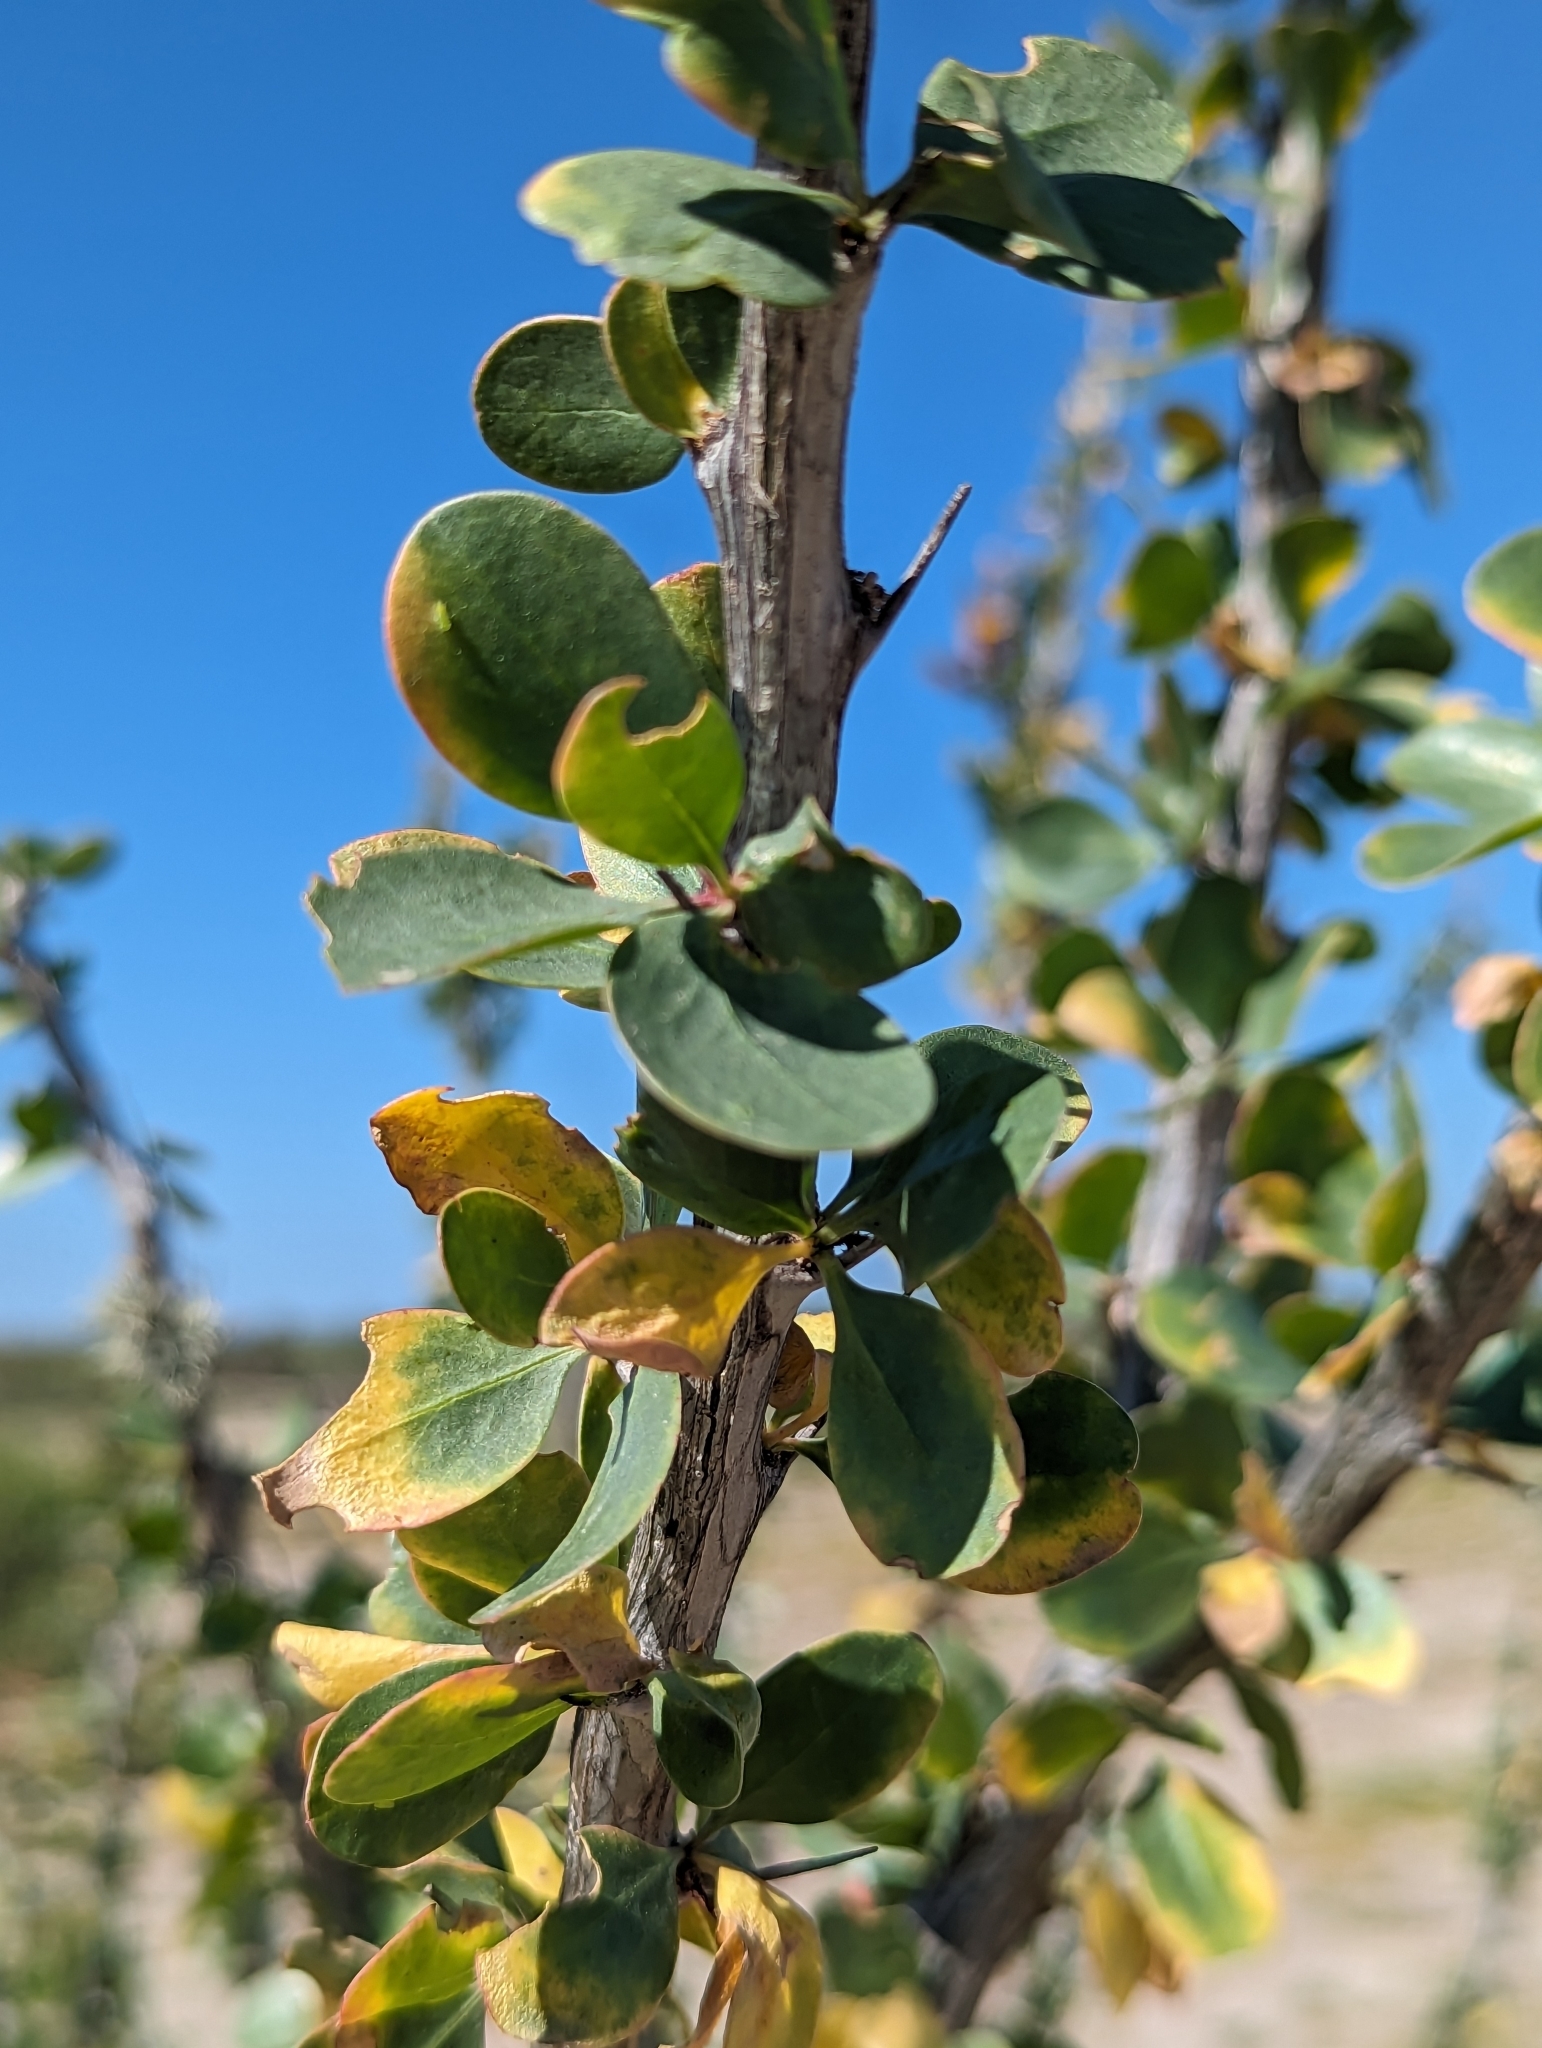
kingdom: Plantae
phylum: Tracheophyta
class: Magnoliopsida
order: Ericales
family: Fouquieriaceae
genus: Fouquieria
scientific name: Fouquieria diguetii
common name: Adam's tree
